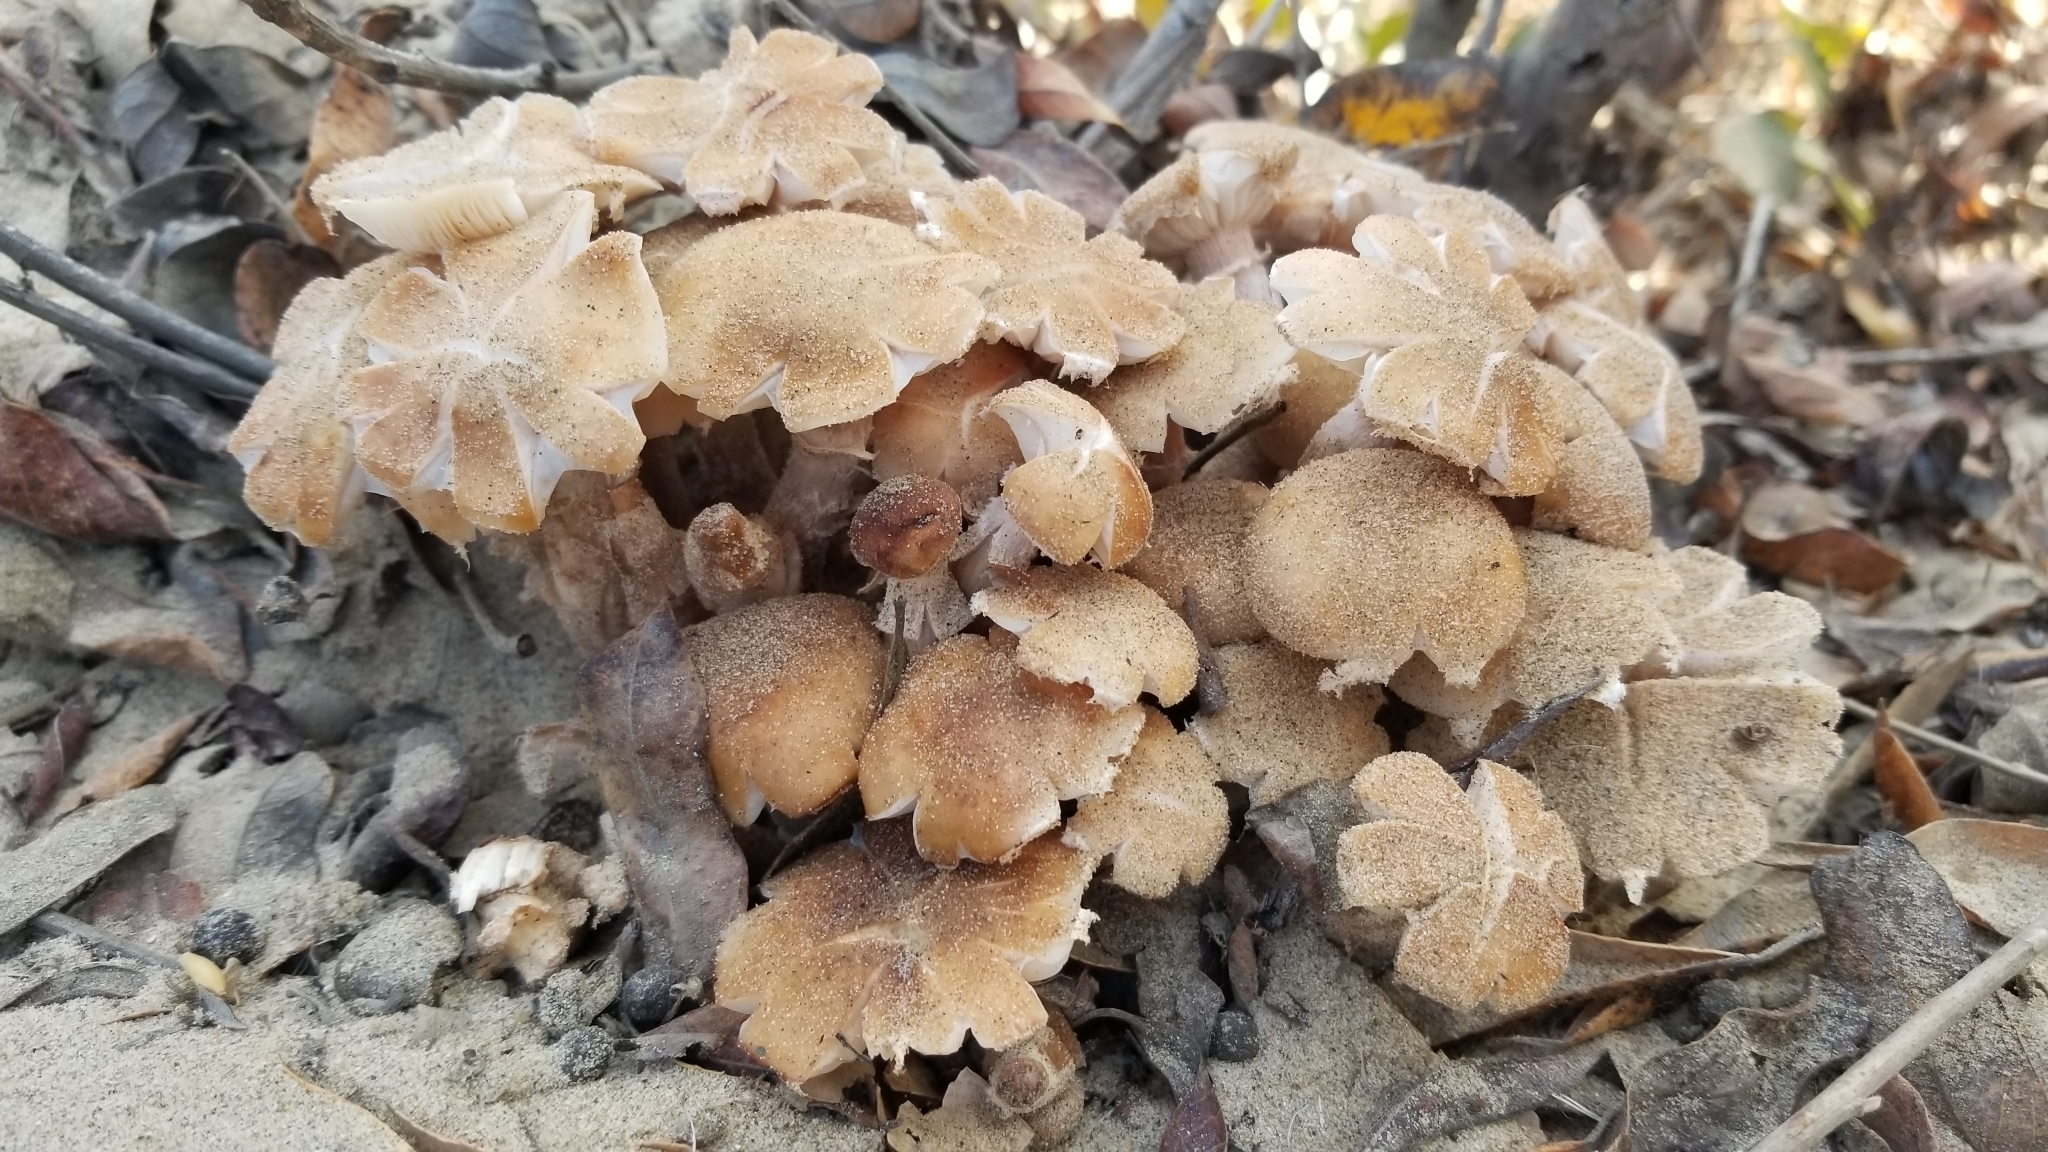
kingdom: Fungi
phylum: Basidiomycota
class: Agaricomycetes
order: Agaricales
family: Physalacriaceae
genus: Armillaria
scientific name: Armillaria mellea
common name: Honey fungus
